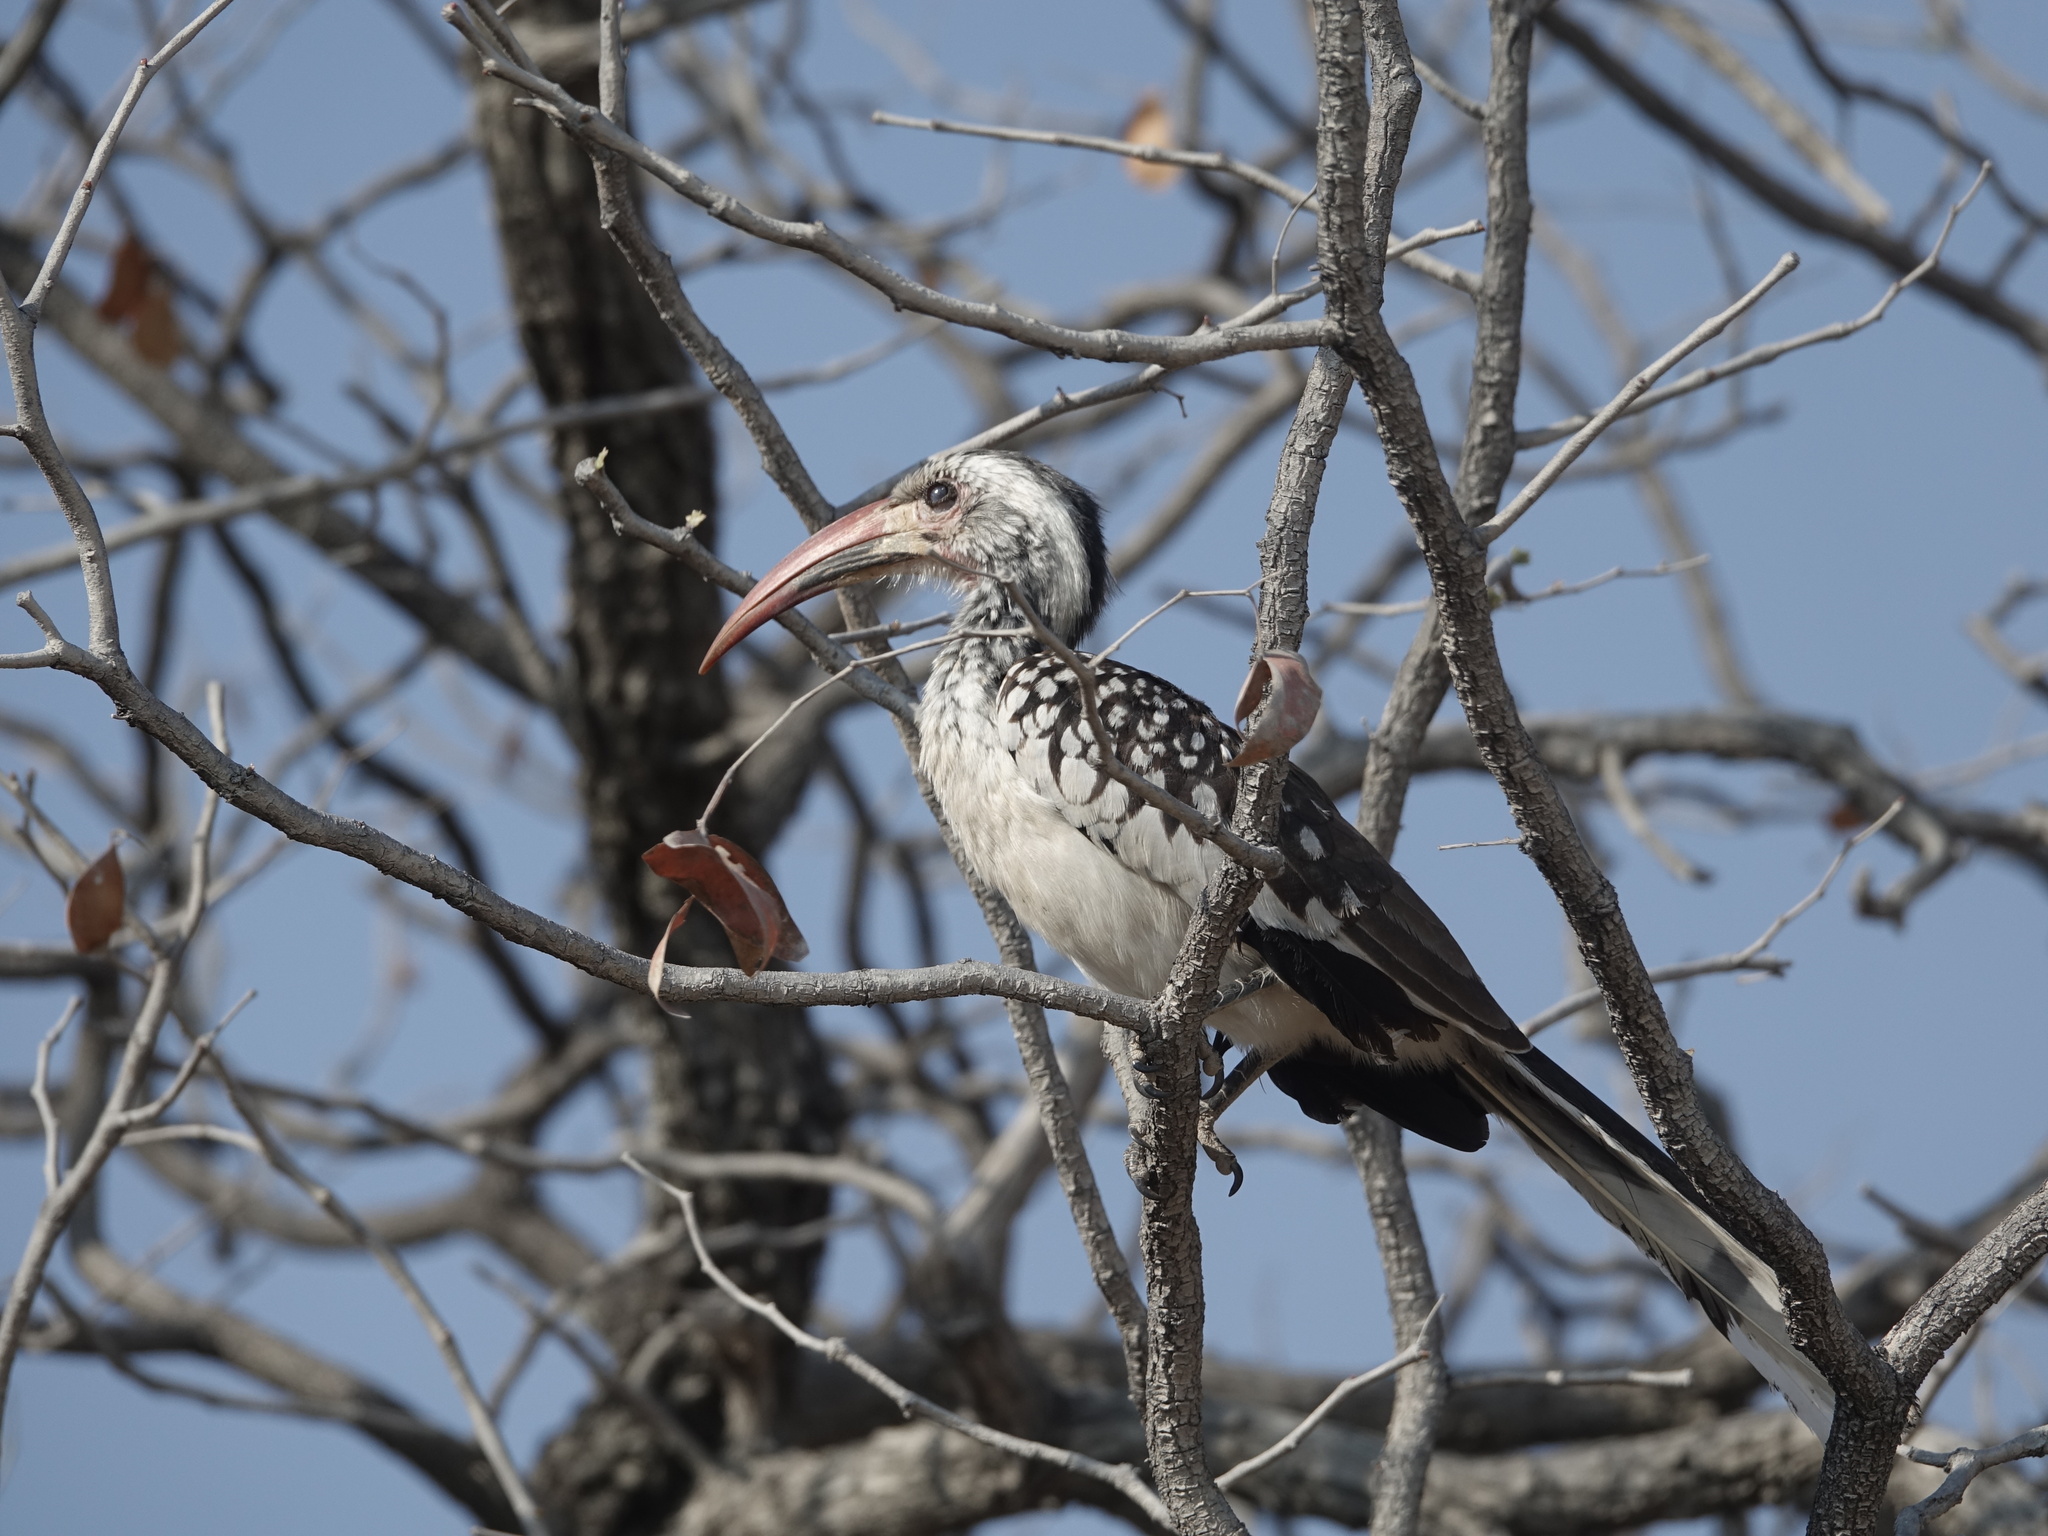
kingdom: Animalia
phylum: Chordata
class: Aves
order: Bucerotiformes
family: Bucerotidae
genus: Tockus
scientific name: Tockus damarensis
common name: Damara red-billed hornbill
